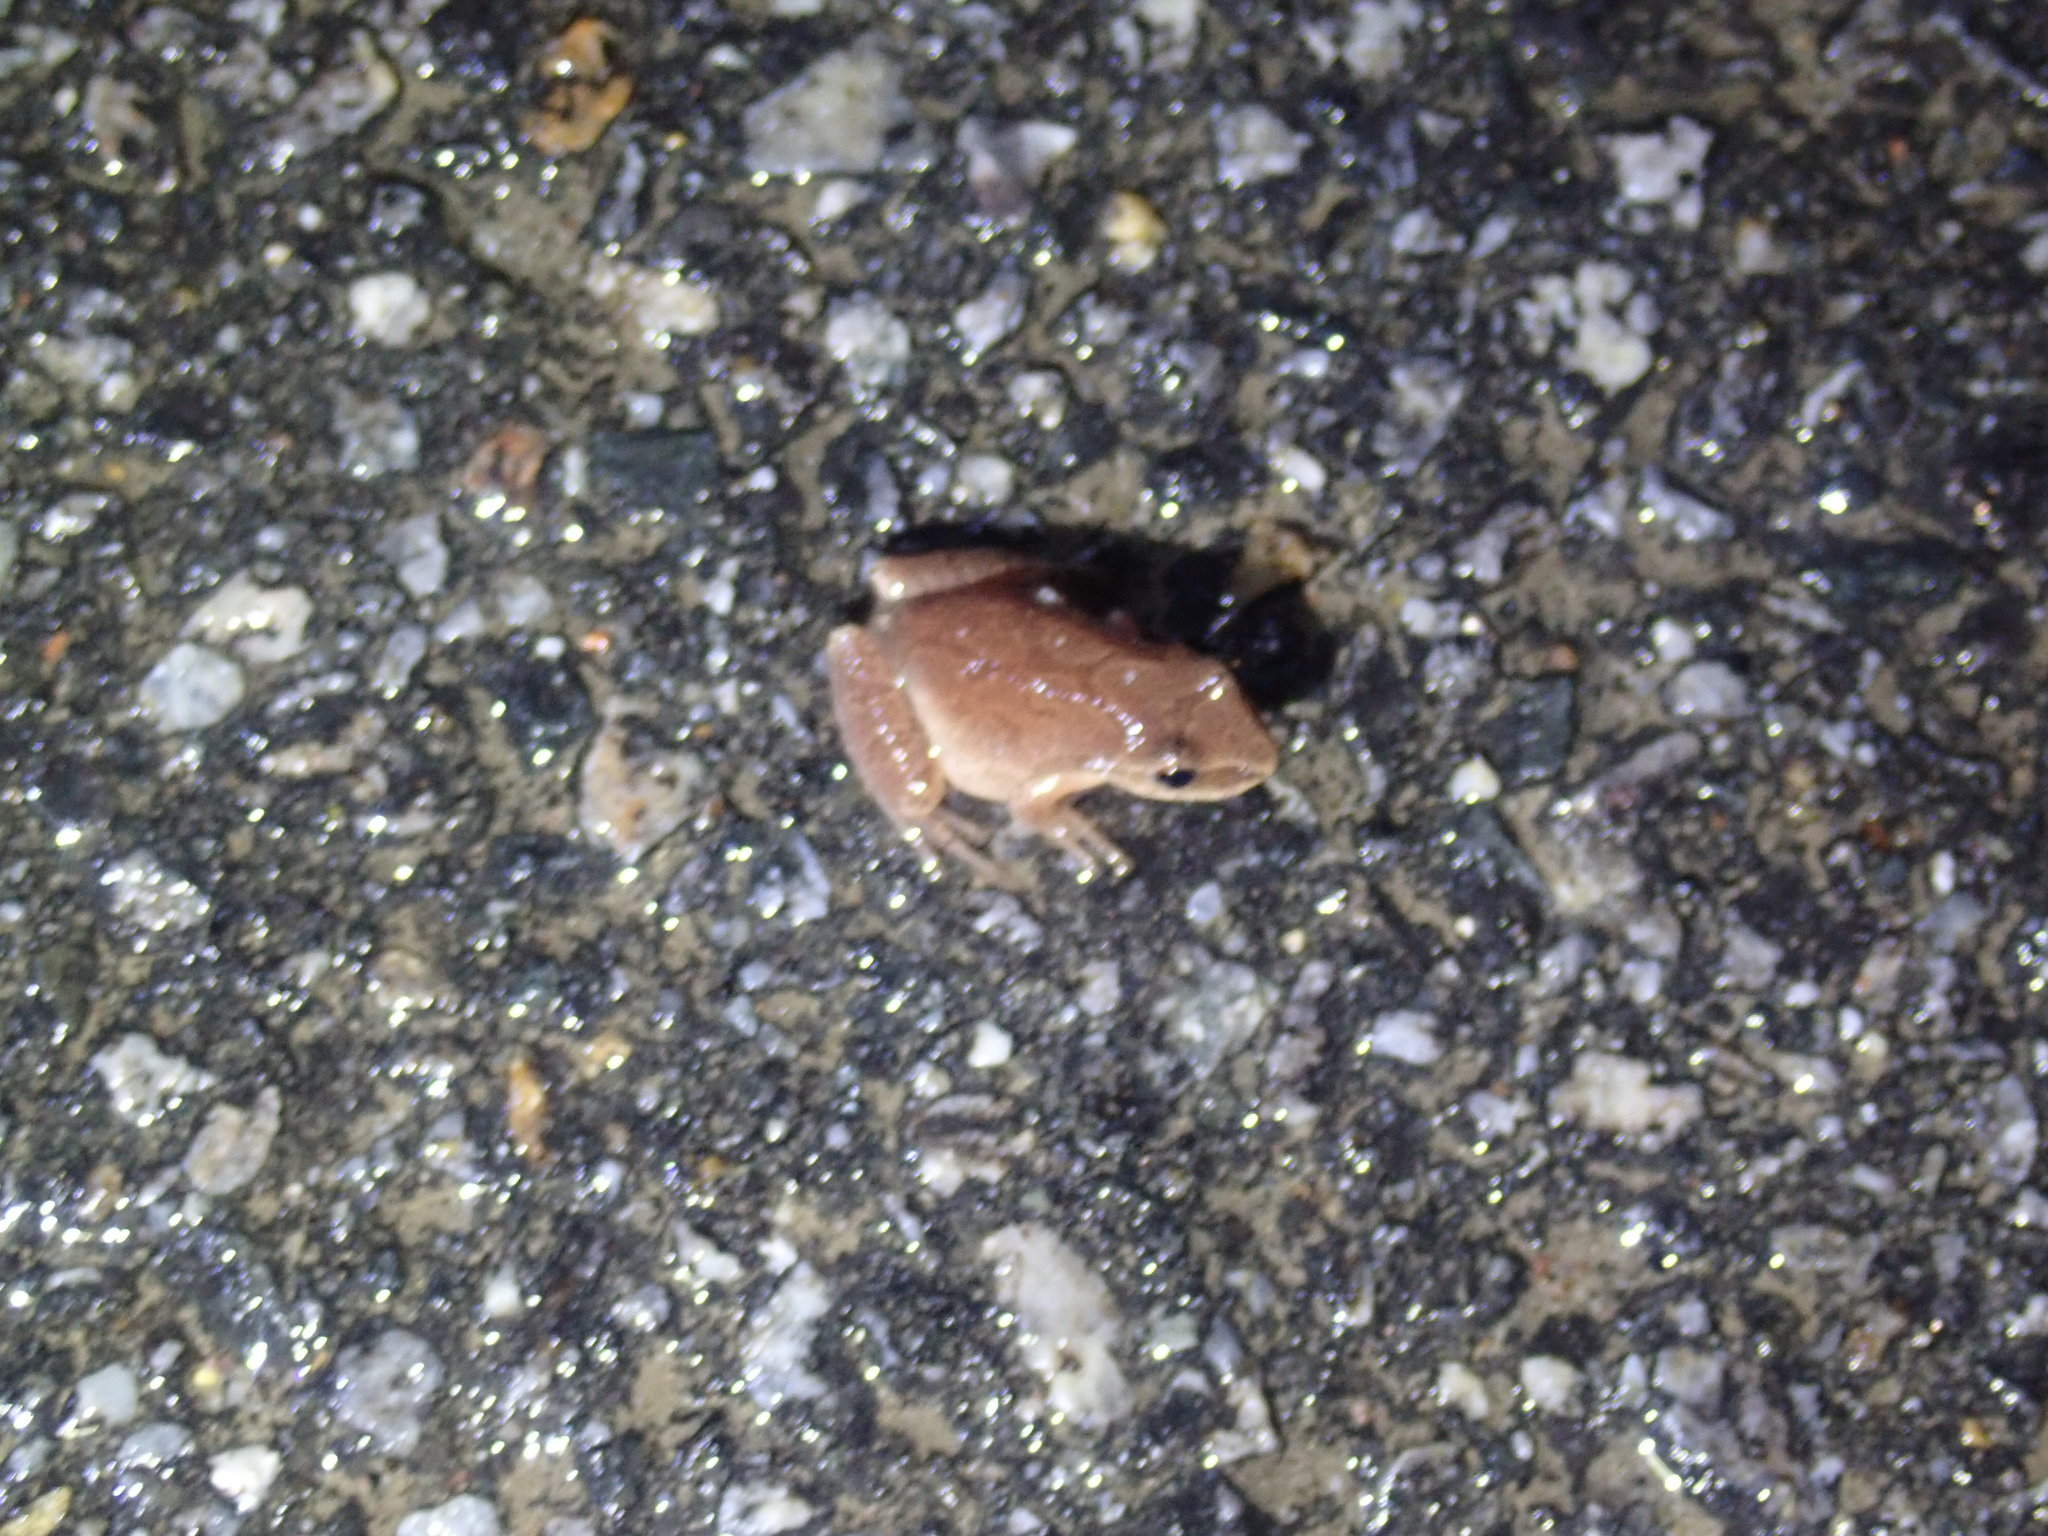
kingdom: Animalia
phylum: Chordata
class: Amphibia
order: Anura
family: Hylidae
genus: Pseudacris
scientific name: Pseudacris crucifer
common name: Spring peeper
